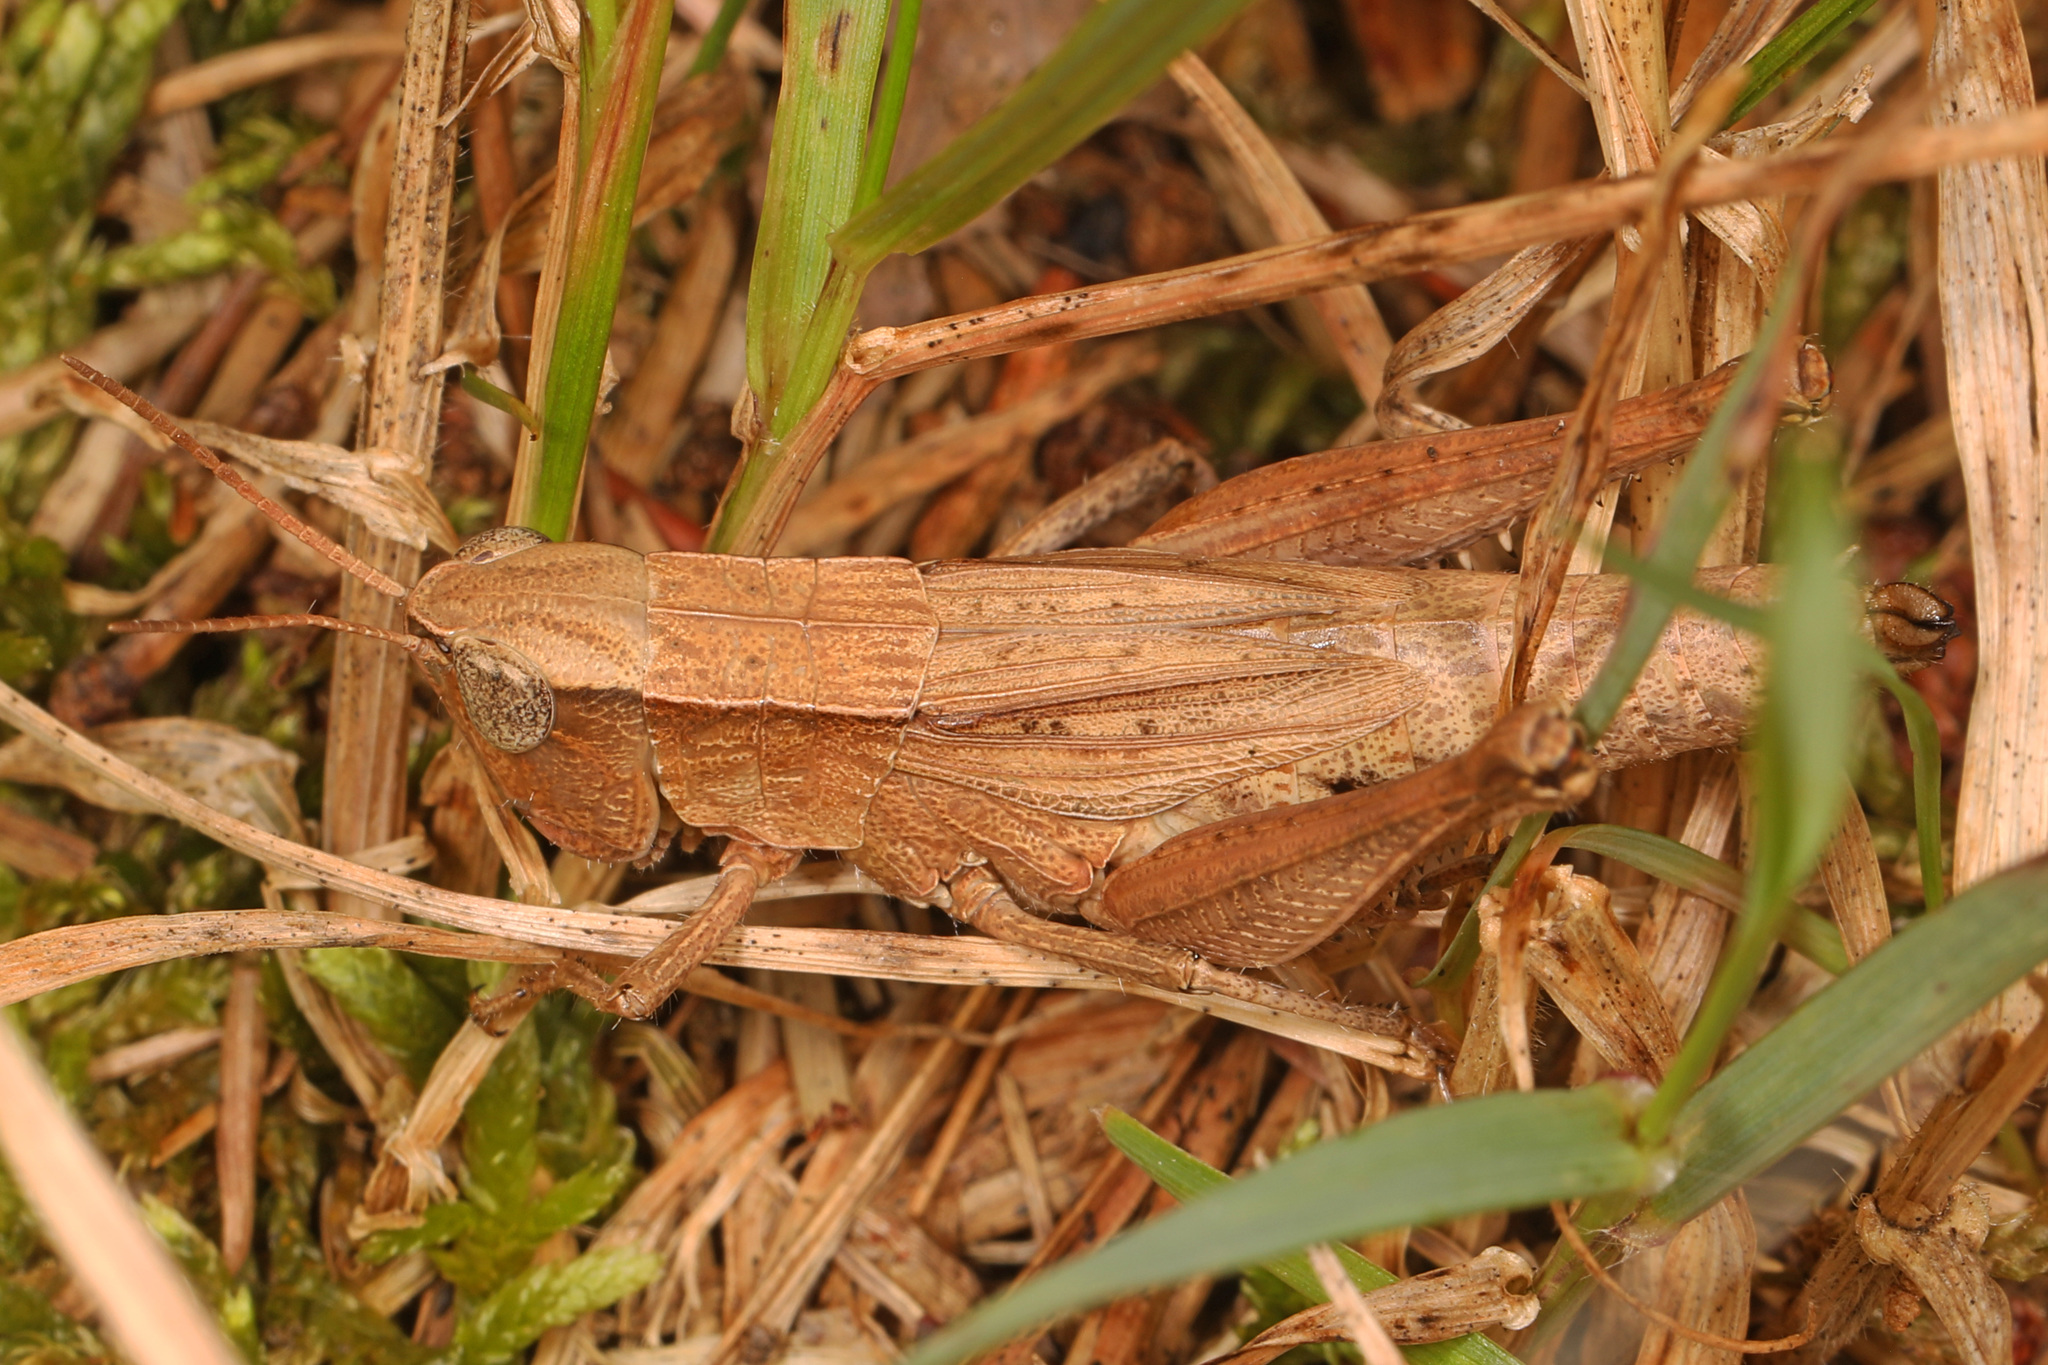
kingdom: Animalia
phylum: Arthropoda
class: Insecta
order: Orthoptera
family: Acrididae
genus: Dichromorpha
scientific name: Dichromorpha viridis
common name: Short-winged green grasshopper
